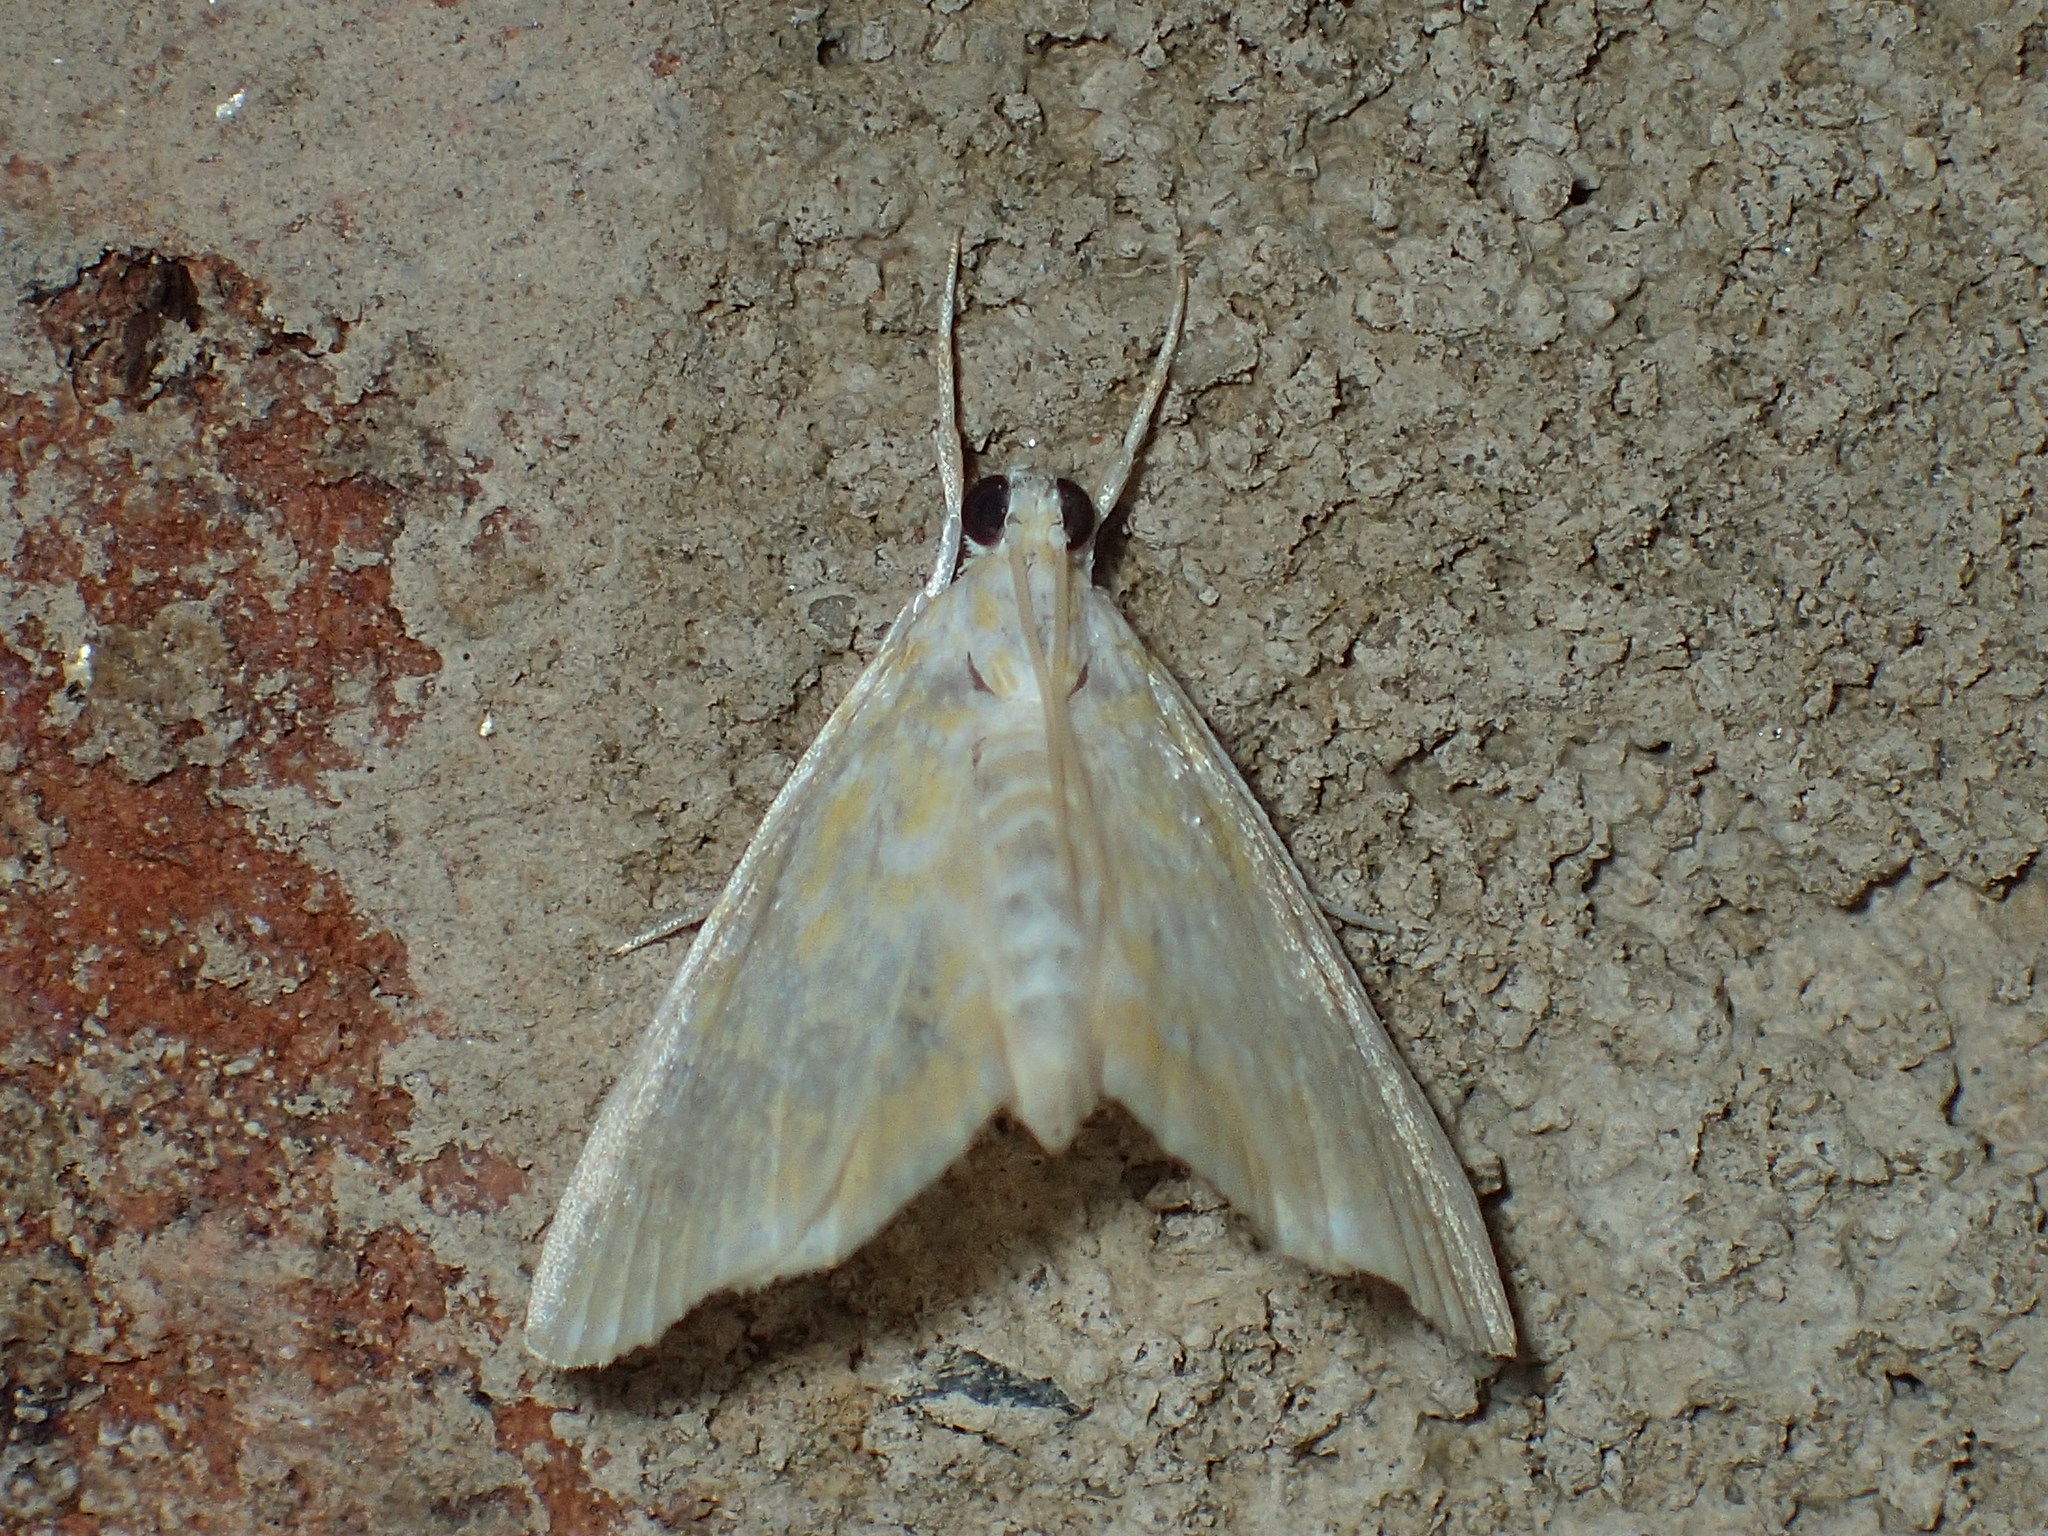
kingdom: Animalia
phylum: Arthropoda
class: Insecta
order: Lepidoptera
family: Crambidae
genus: Glaphyria
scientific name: Glaphyria glaphyralis
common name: Common glaphyria moth
